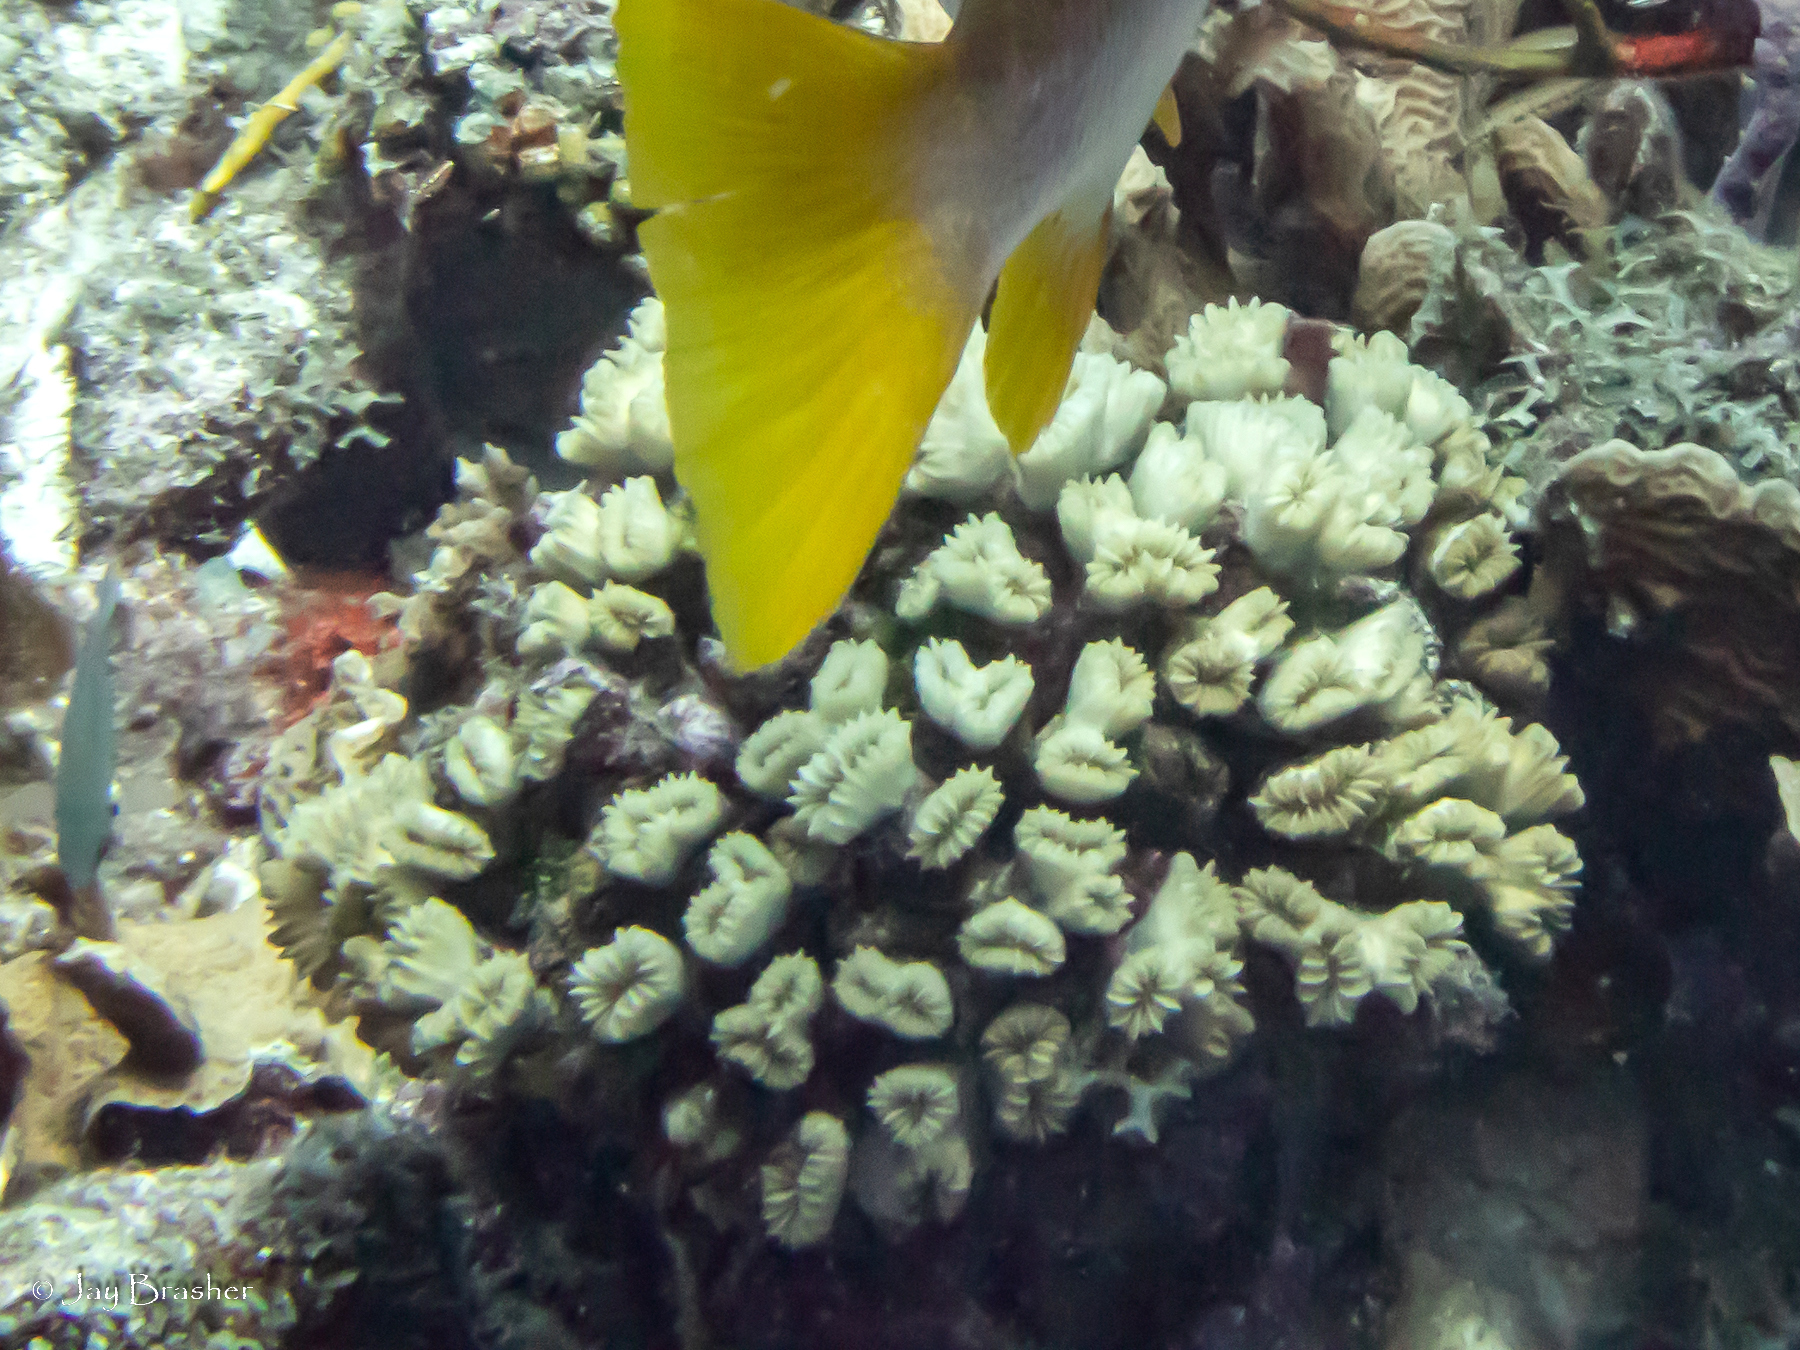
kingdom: Animalia
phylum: Cnidaria
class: Anthozoa
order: Scleractinia
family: Meandrinidae
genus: Eusmilia
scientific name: Eusmilia fastigiata
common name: Smooth flower coral
